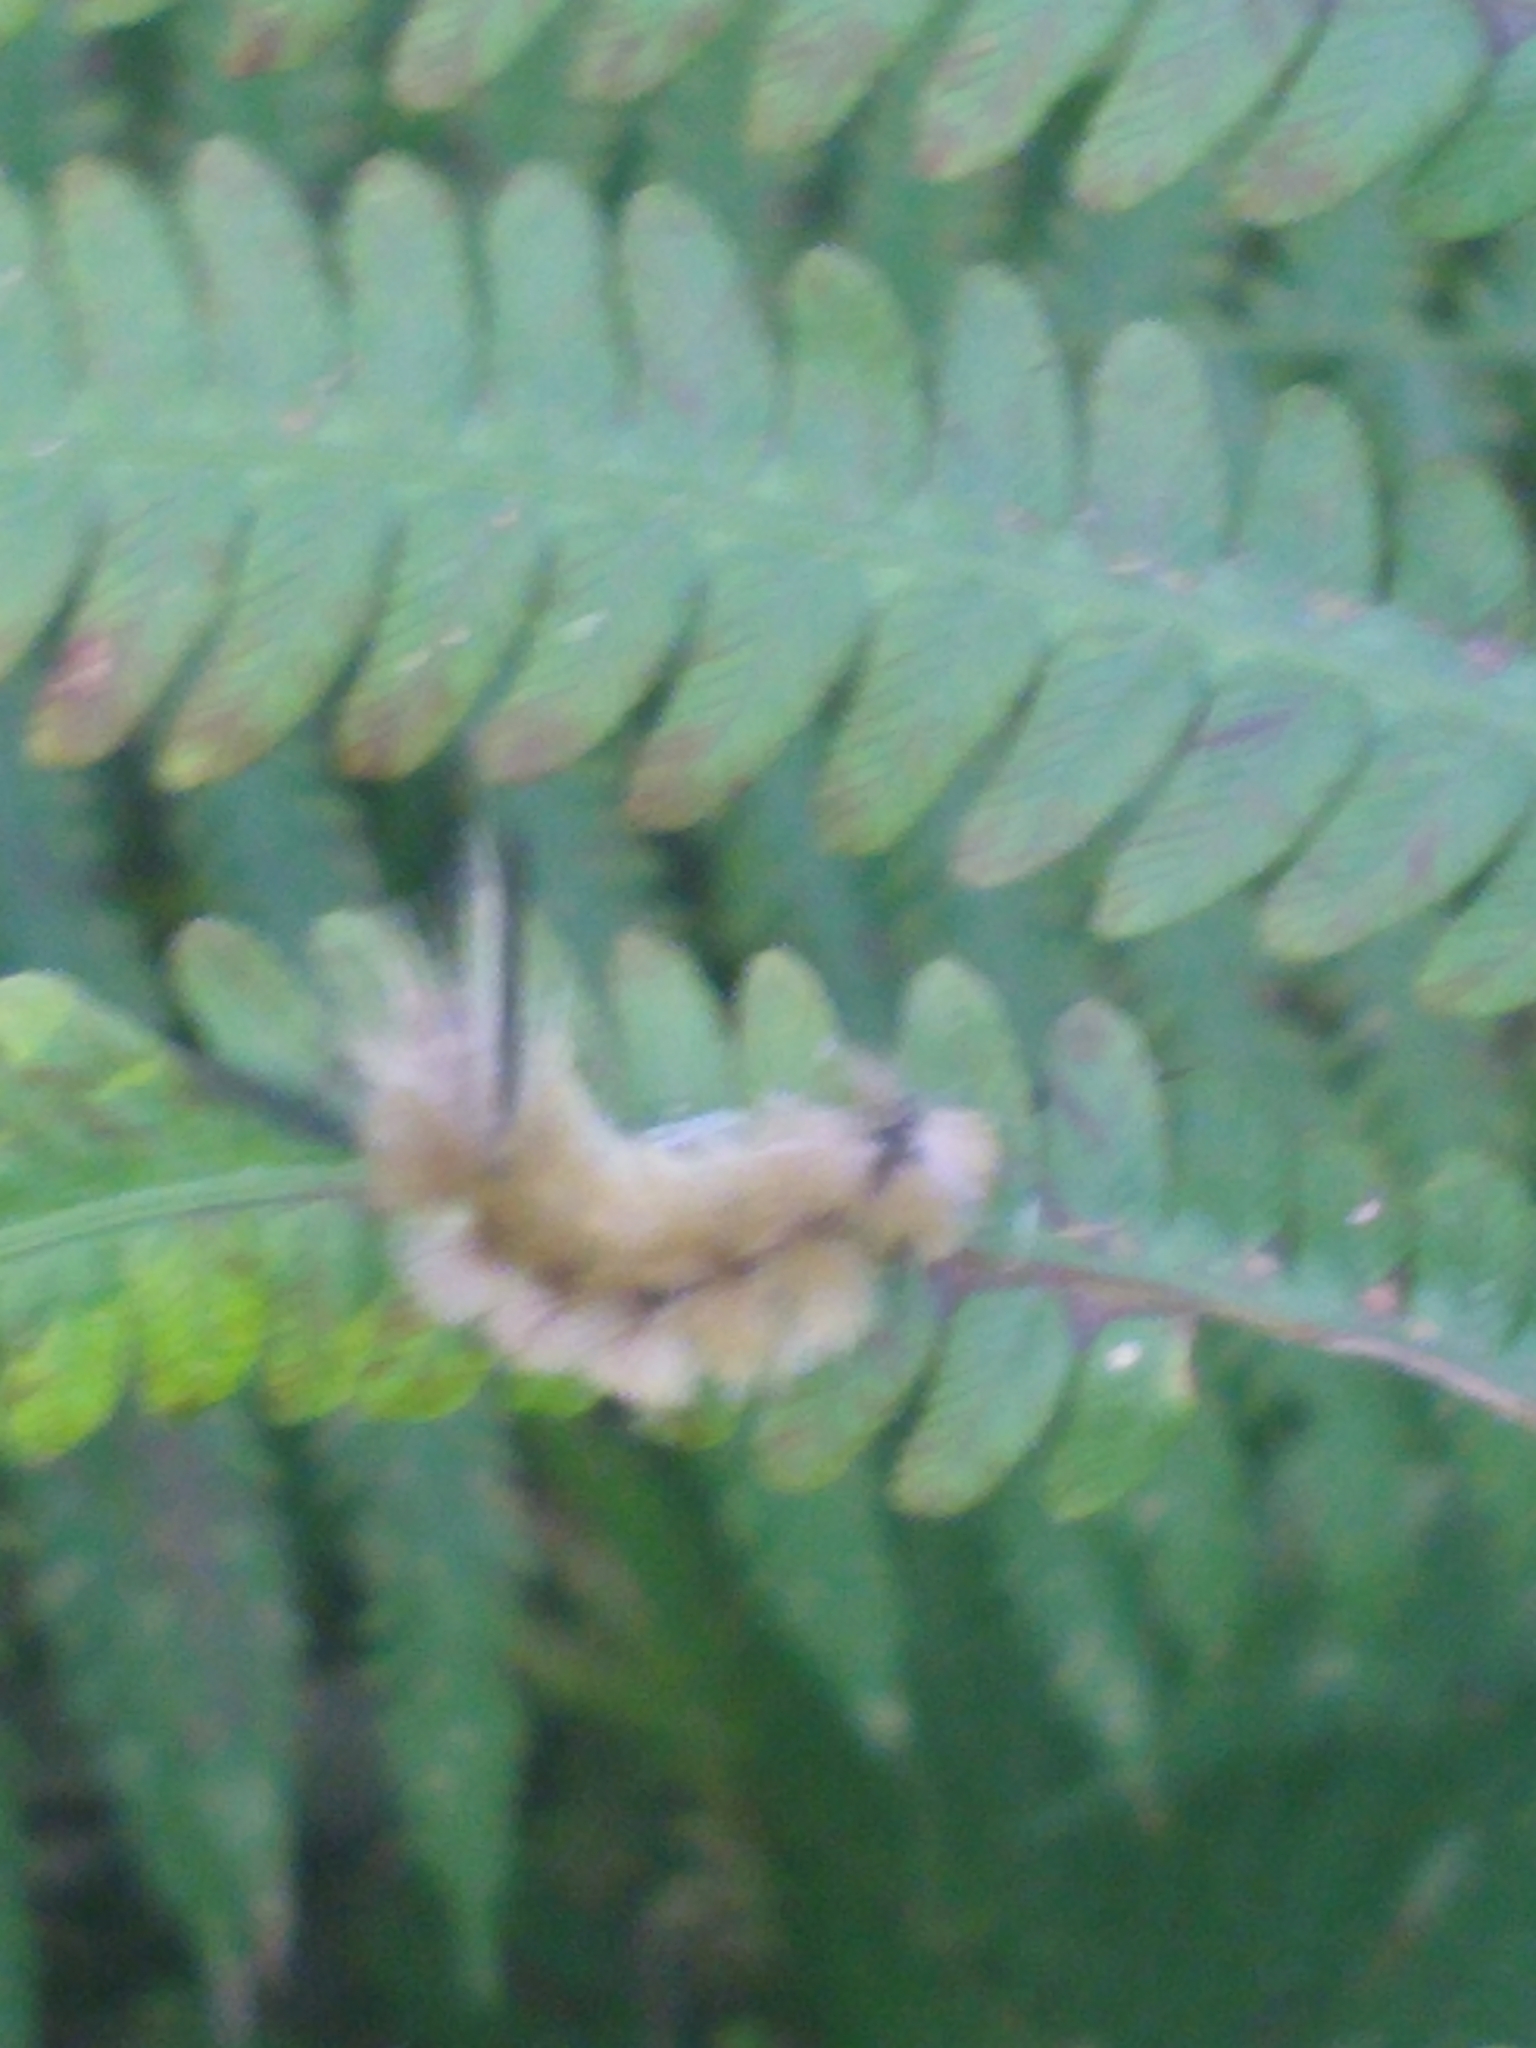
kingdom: Animalia
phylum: Arthropoda
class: Insecta
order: Lepidoptera
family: Erebidae
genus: Halysidota
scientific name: Halysidota tessellaris
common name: Banded tussock moth
